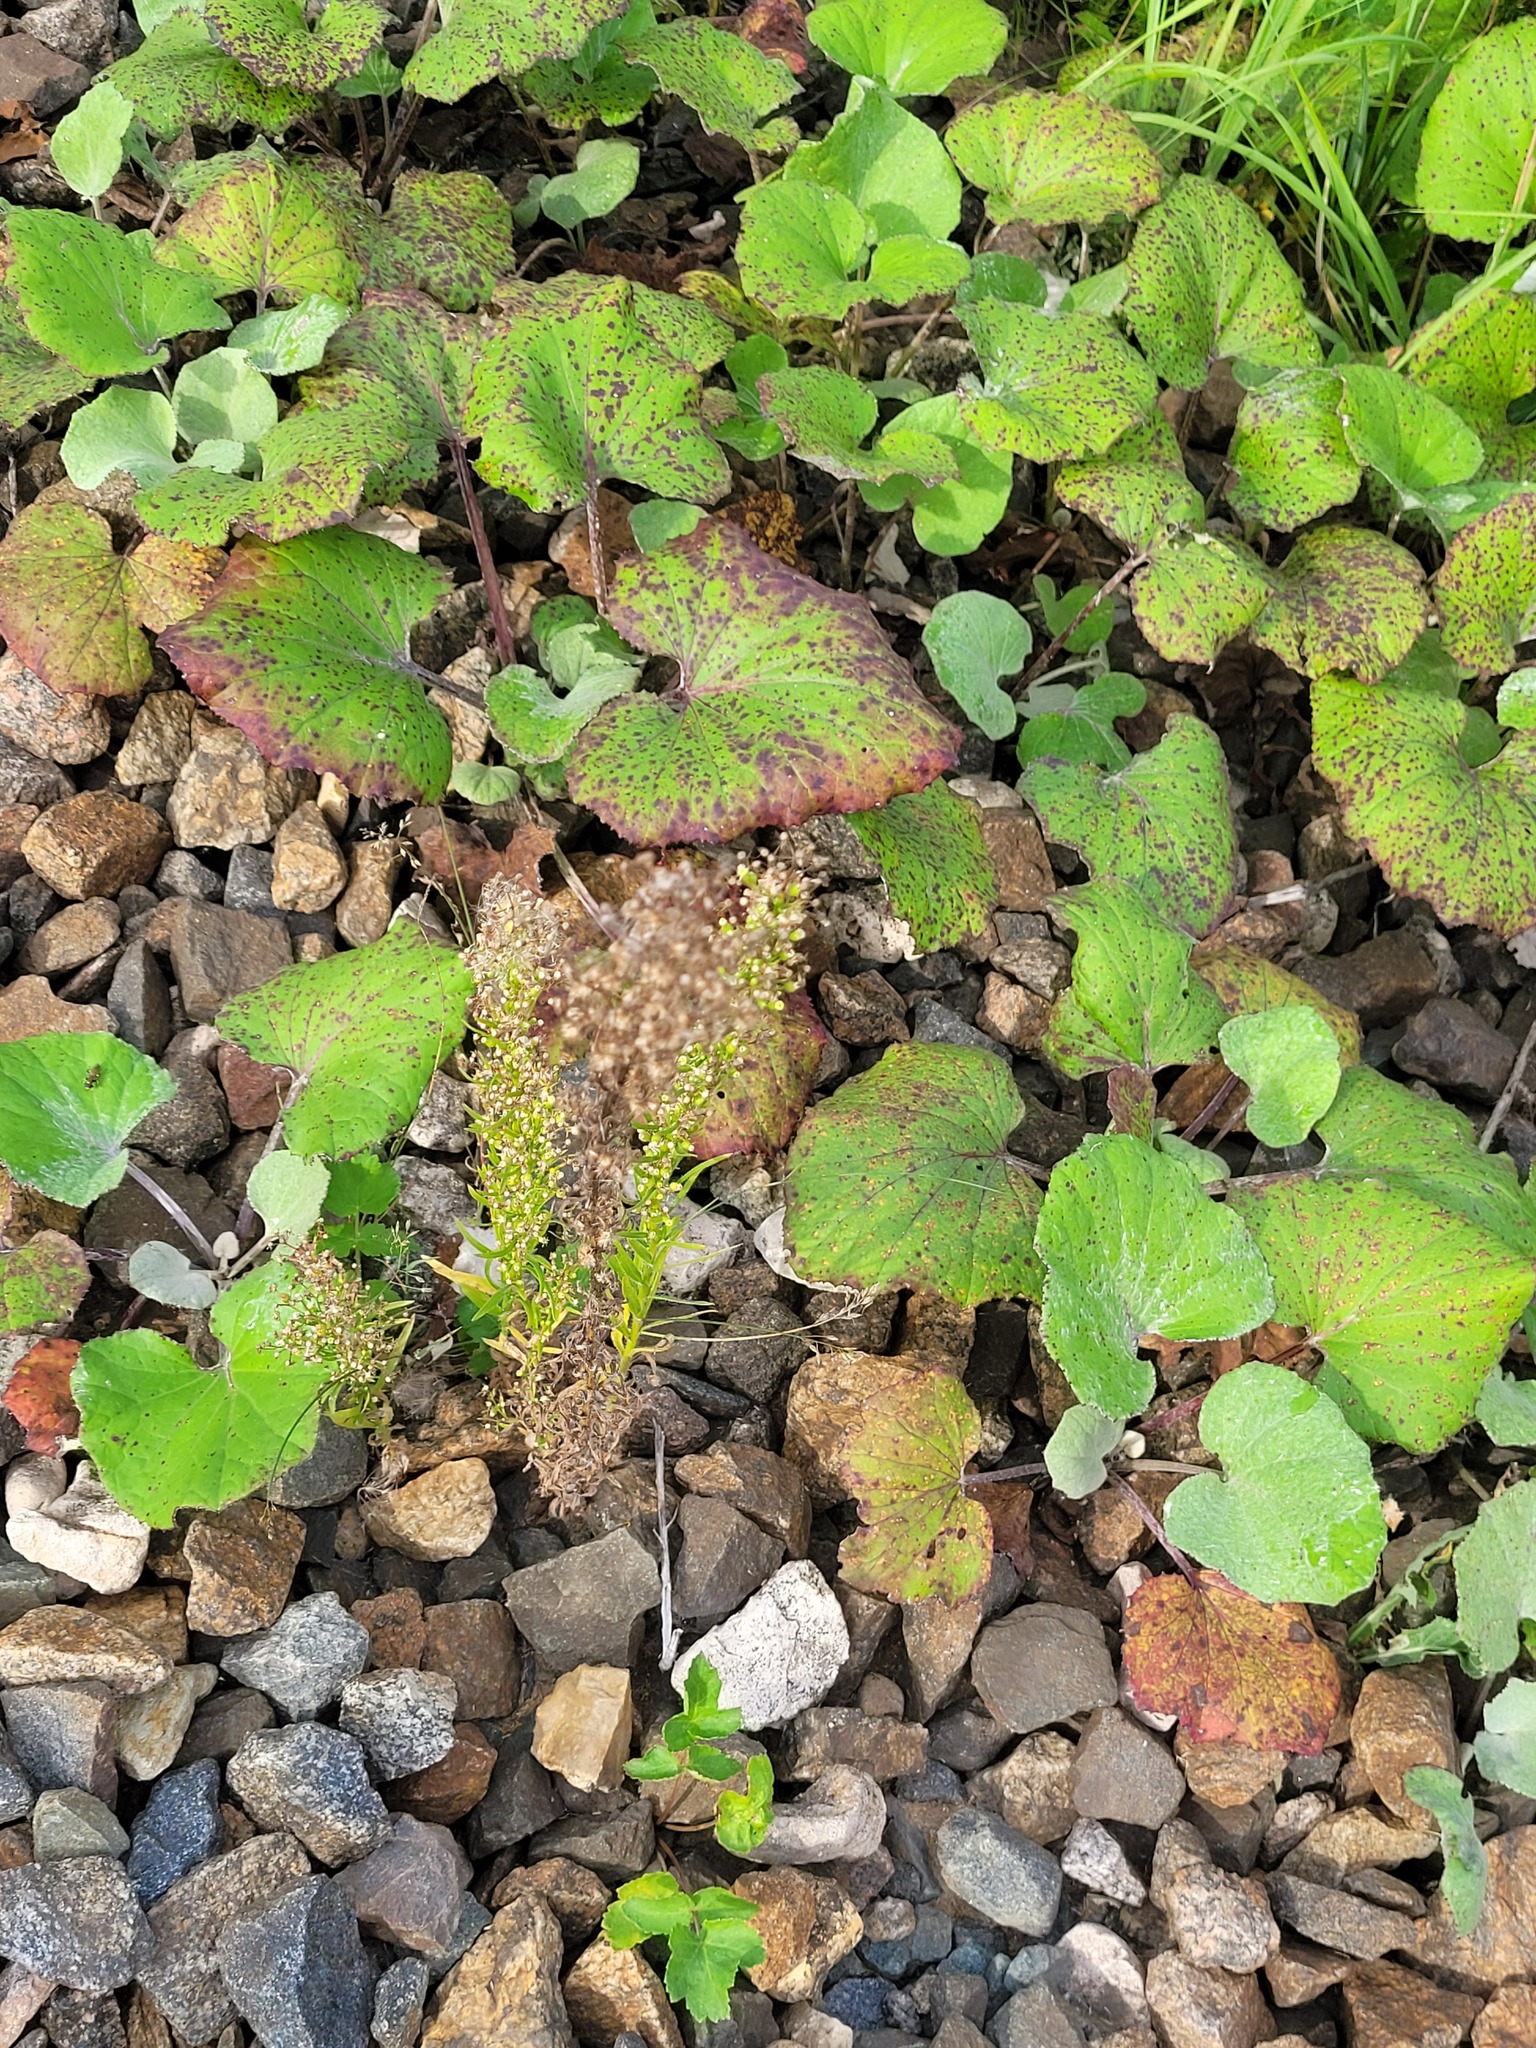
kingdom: Plantae
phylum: Tracheophyta
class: Magnoliopsida
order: Asterales
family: Asteraceae
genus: Erigeron
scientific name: Erigeron canadensis
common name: Canadian fleabane
